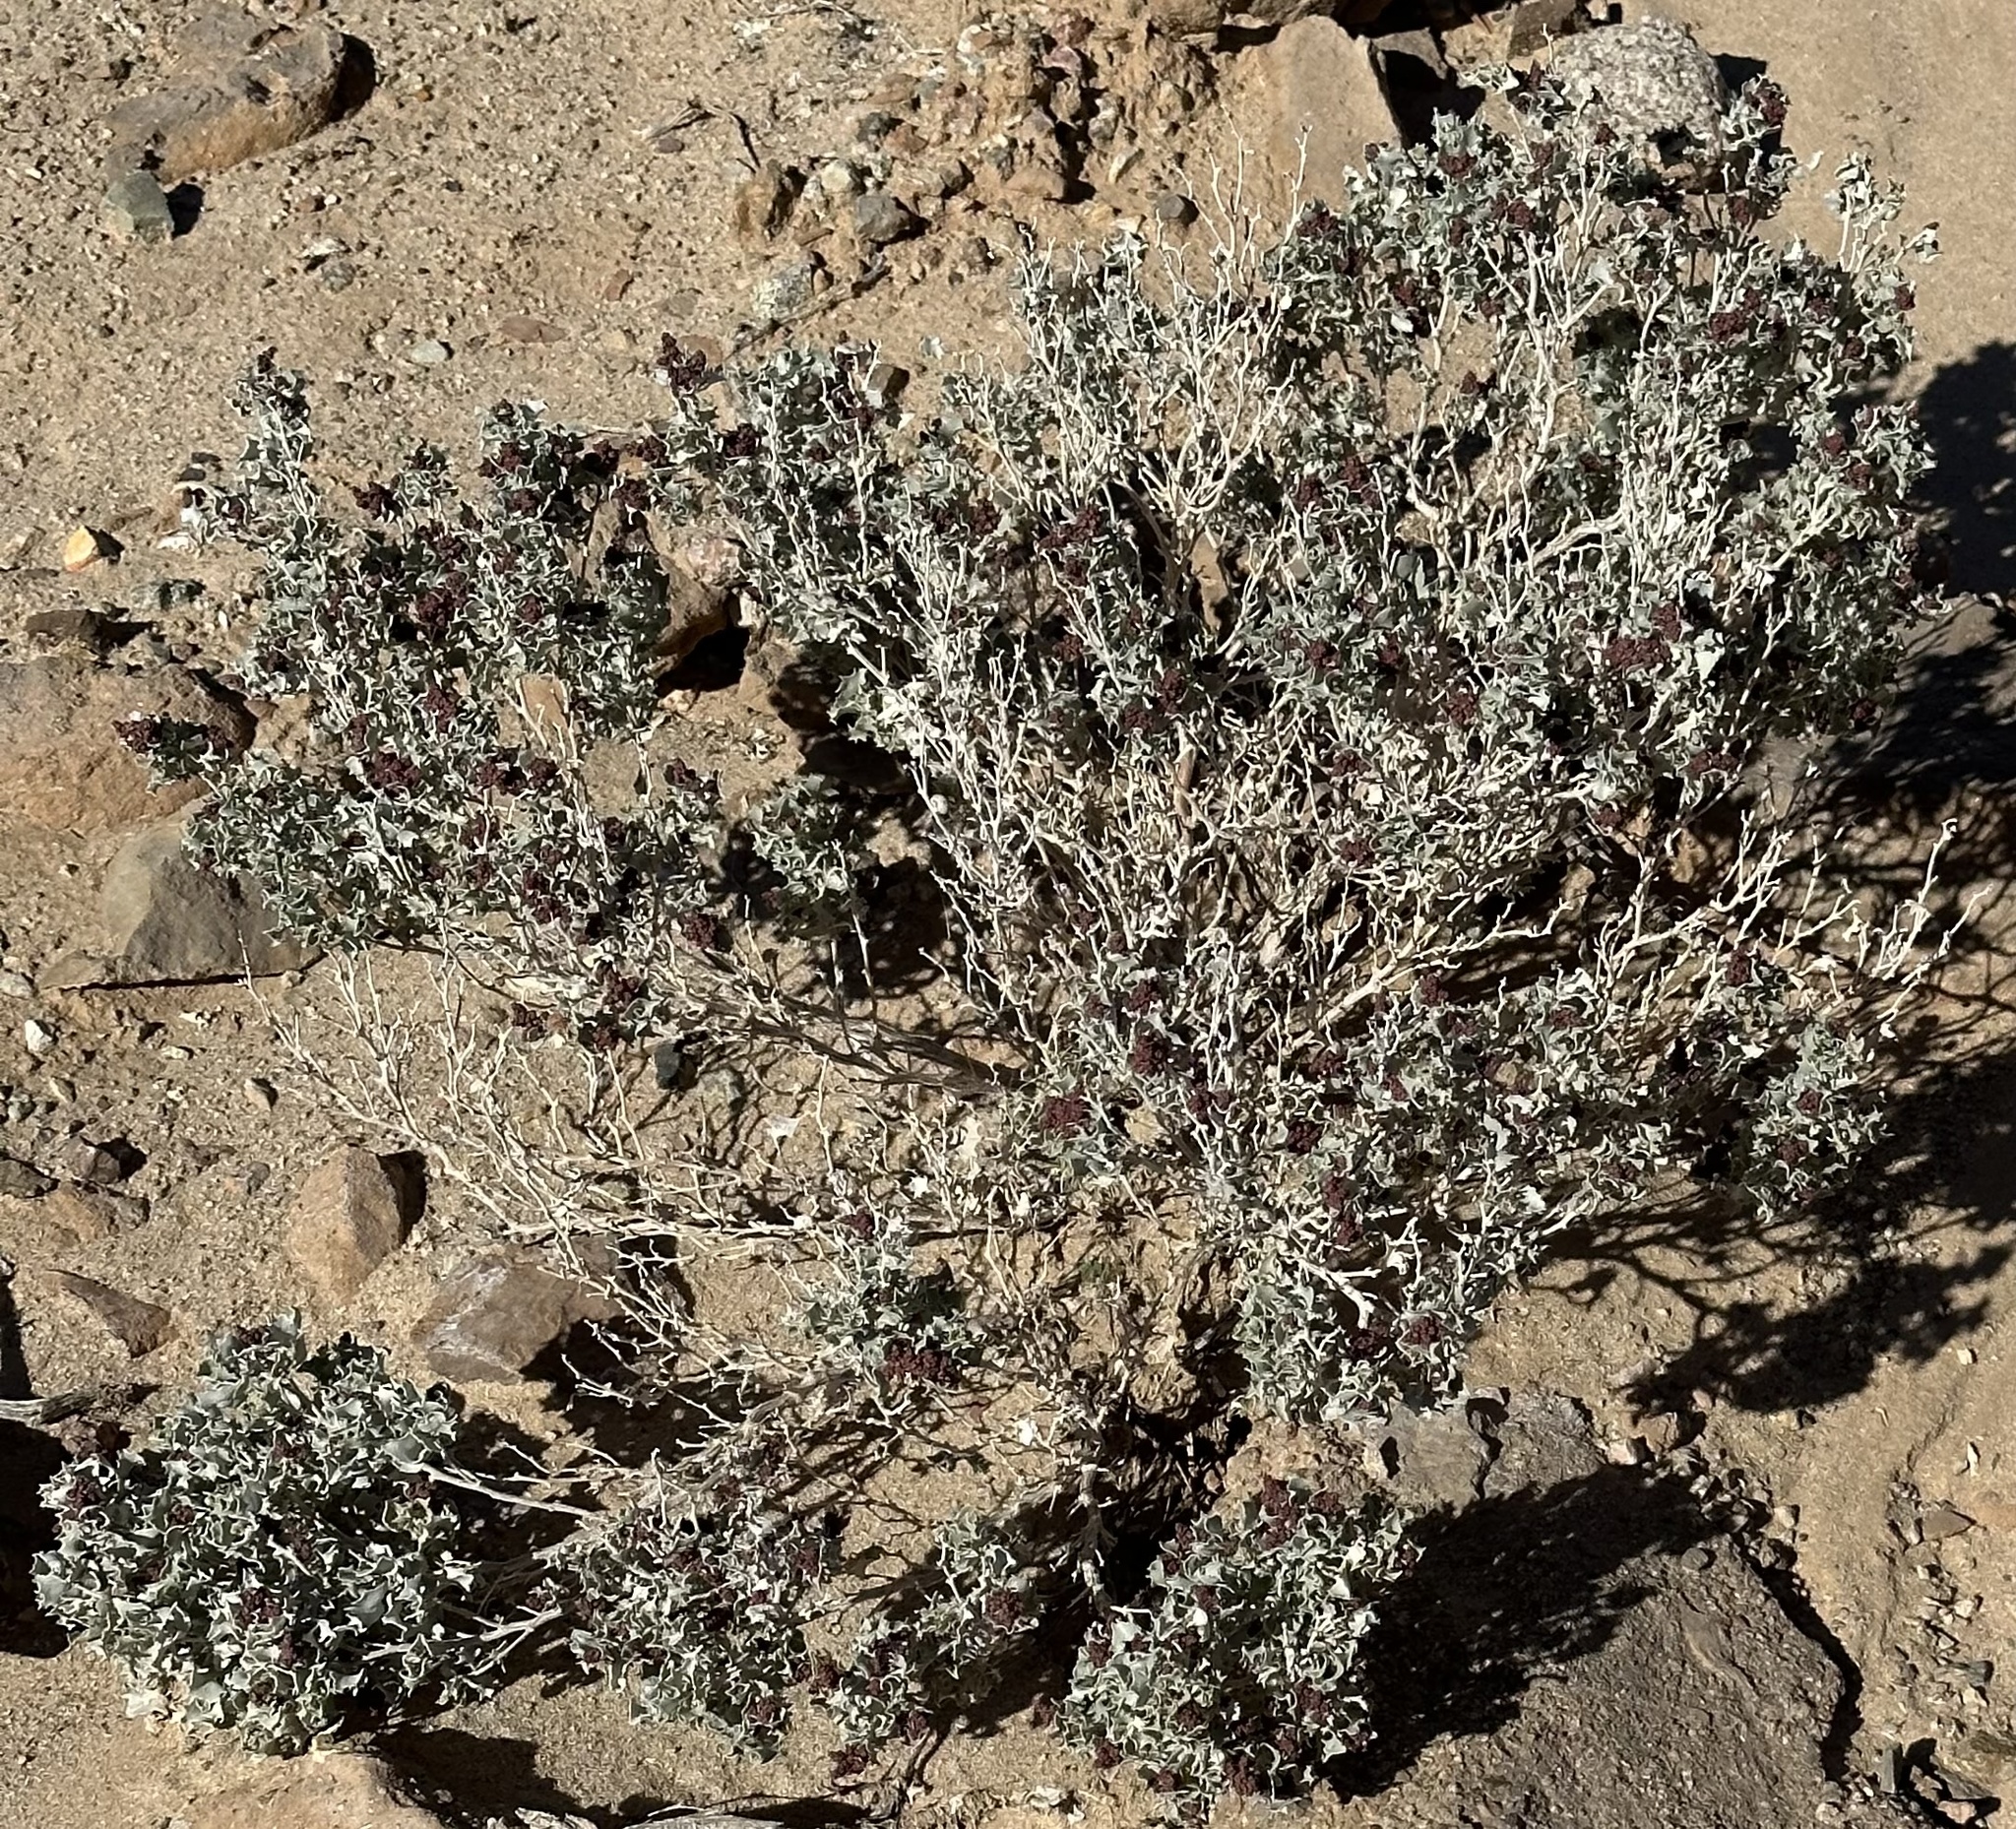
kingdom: Plantae
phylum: Tracheophyta
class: Magnoliopsida
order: Caryophyllales
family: Amaranthaceae
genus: Atriplex
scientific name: Atriplex hymenelytra
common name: Desert-holly
